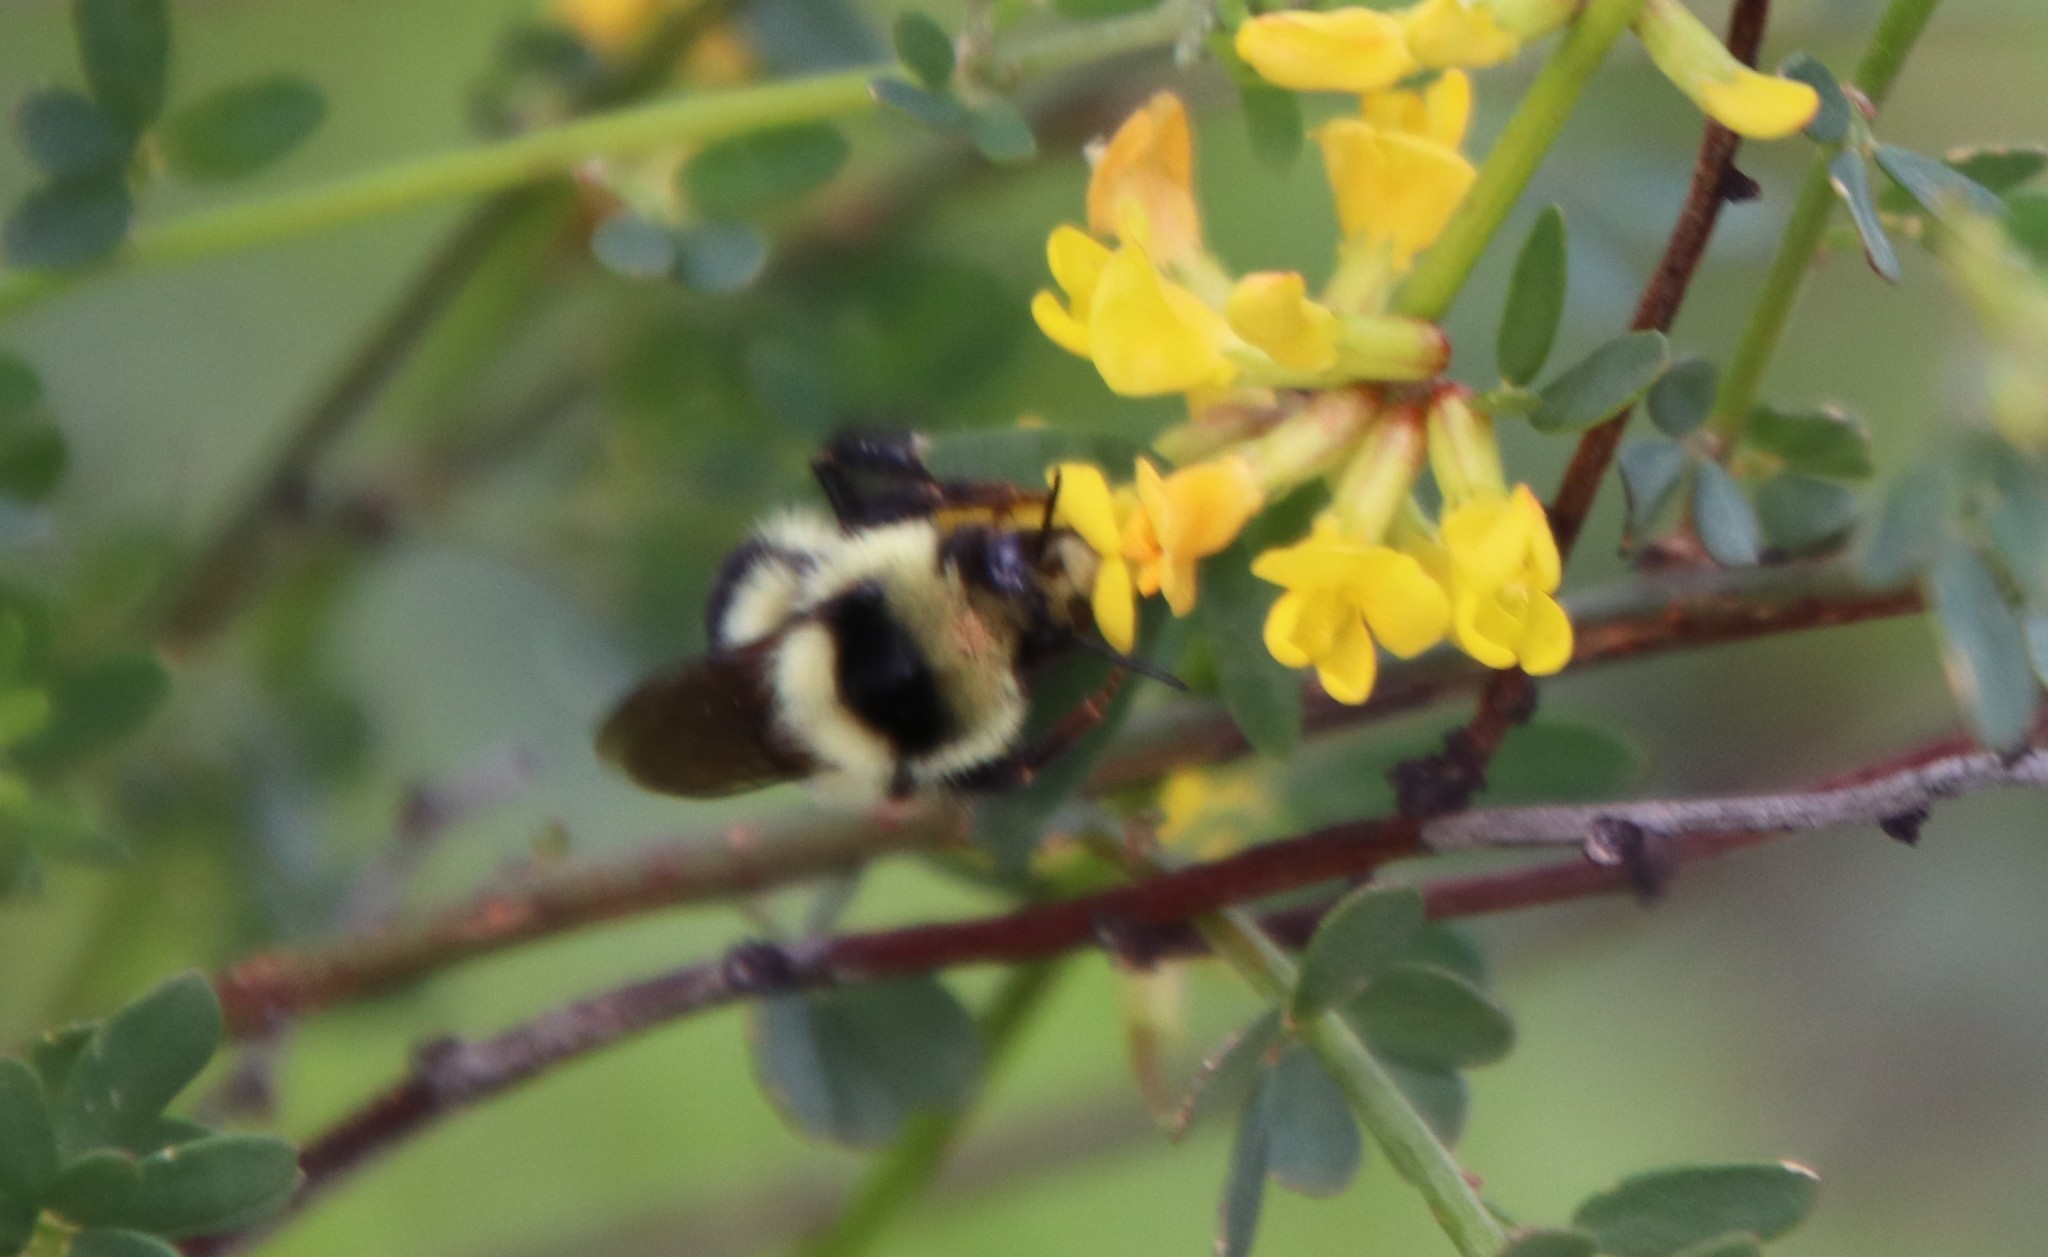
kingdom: Animalia
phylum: Arthropoda
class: Insecta
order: Hymenoptera
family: Apidae
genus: Bombus
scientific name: Bombus melanopygus
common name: Black tail bumble bee
